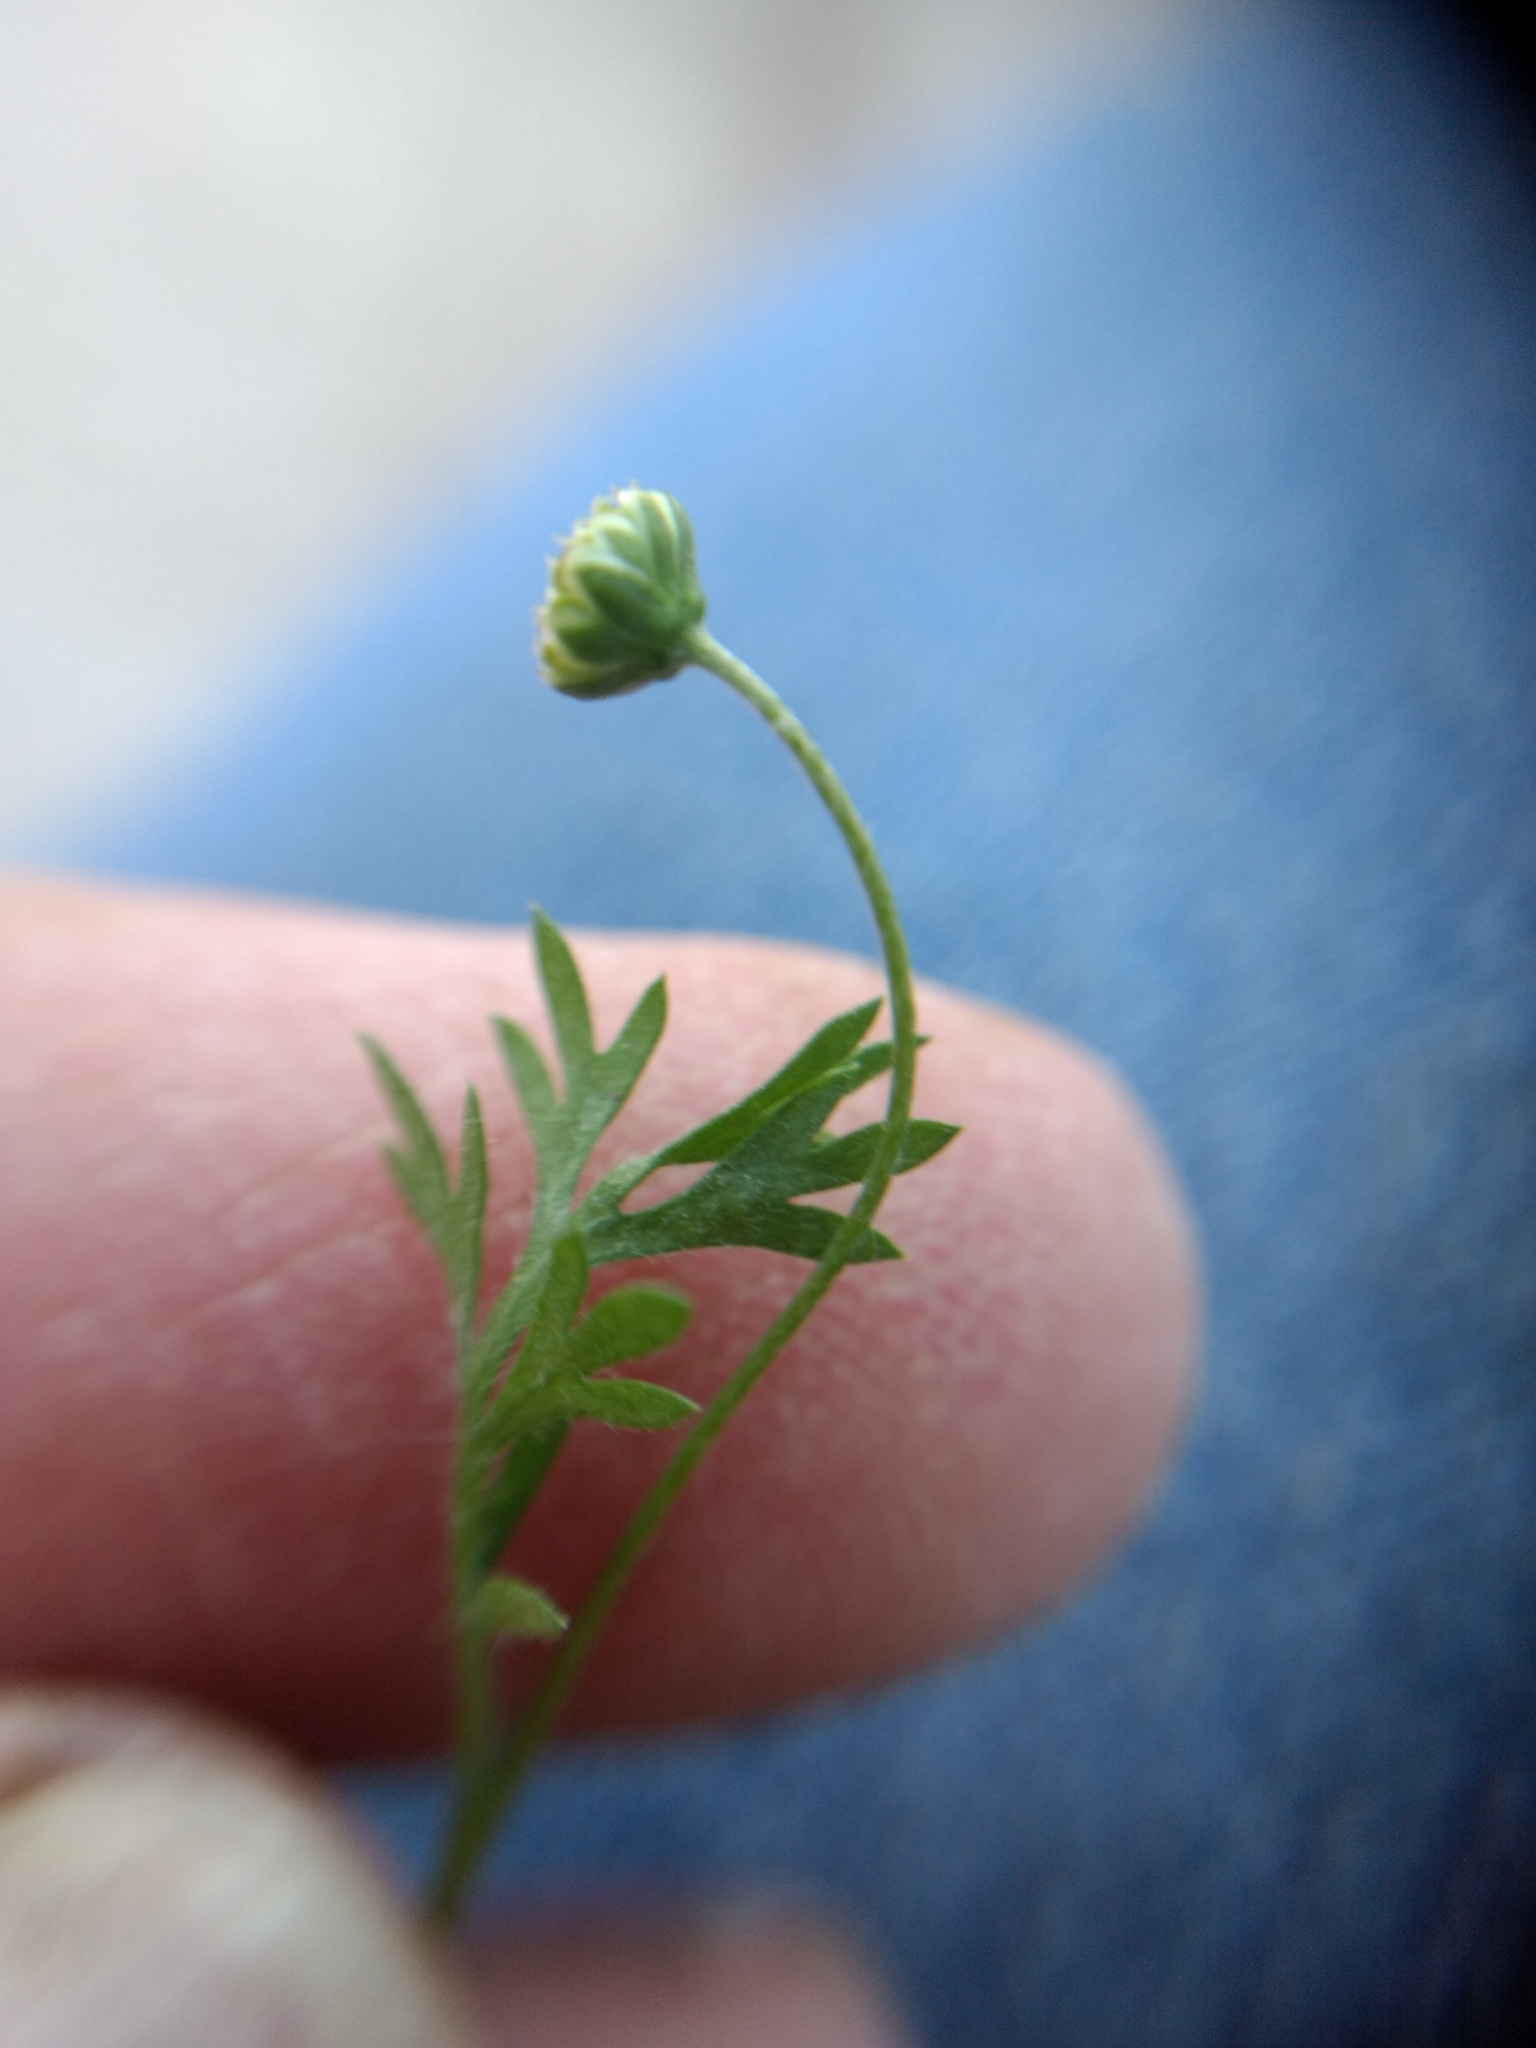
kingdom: Plantae
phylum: Tracheophyta
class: Magnoliopsida
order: Asterales
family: Asteraceae
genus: Cotula
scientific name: Cotula australis
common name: Australian waterbuttons
